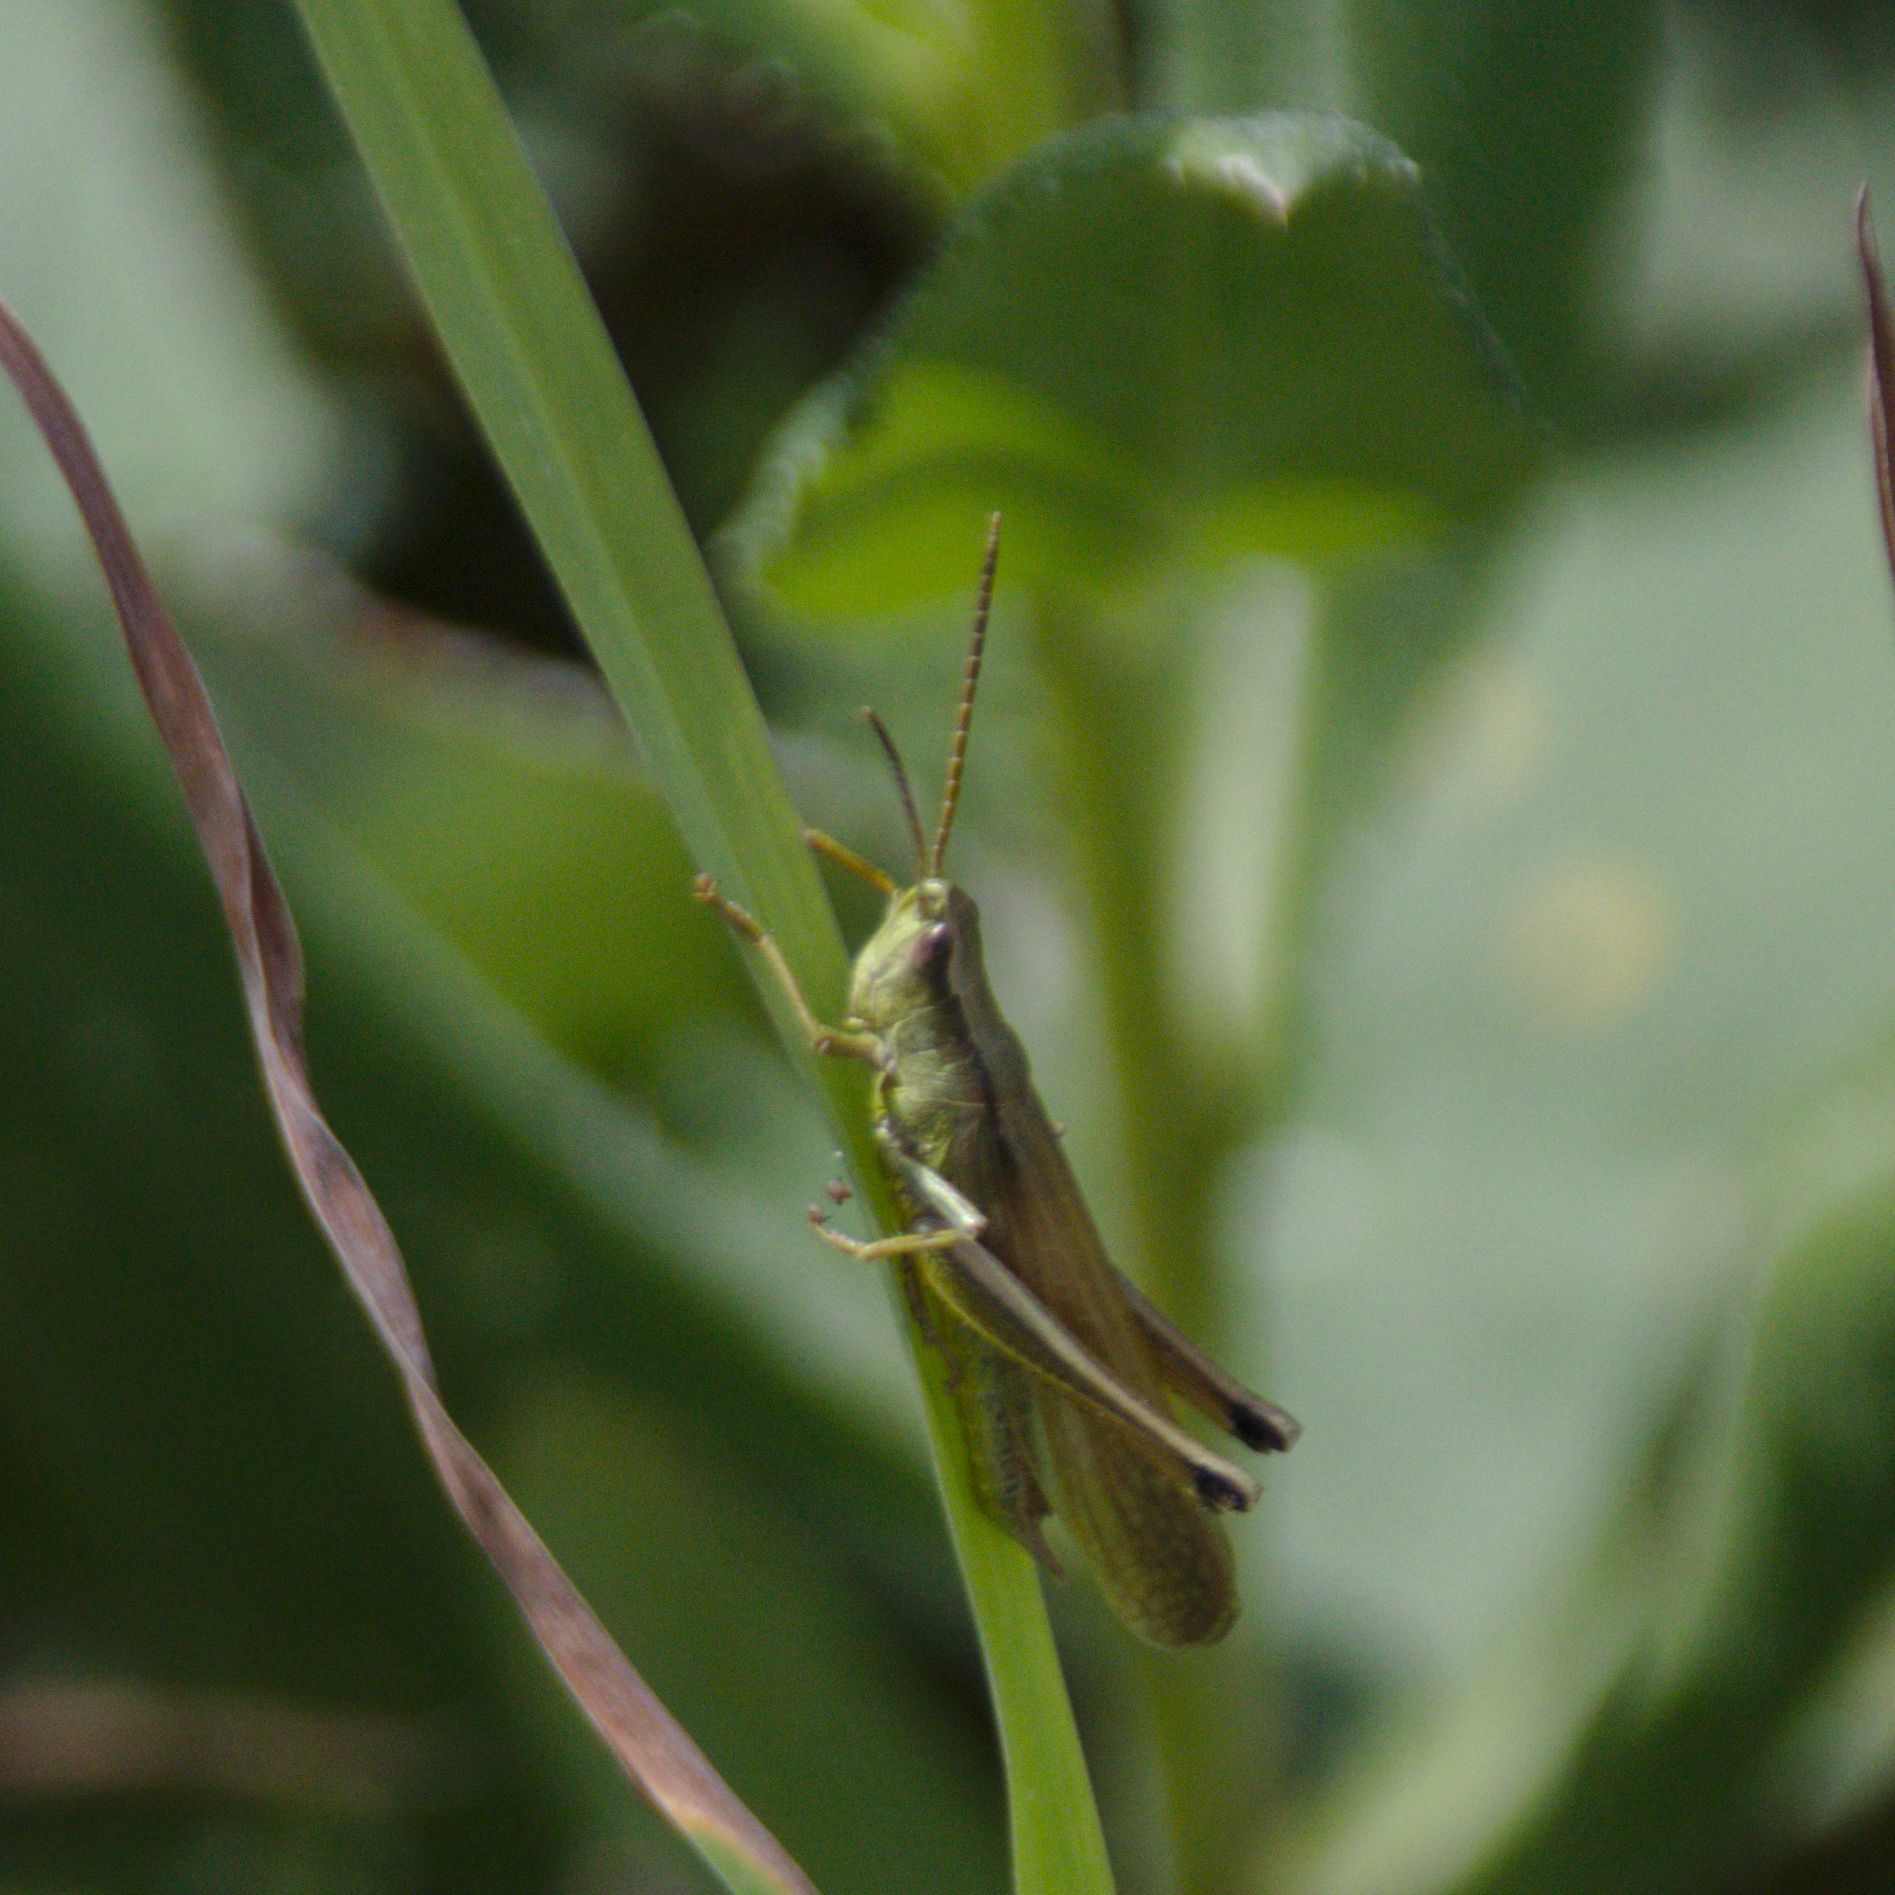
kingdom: Animalia
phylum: Arthropoda
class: Insecta
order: Orthoptera
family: Acrididae
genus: Chrysochraon
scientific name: Chrysochraon dispar
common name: Large gold grasshopper
